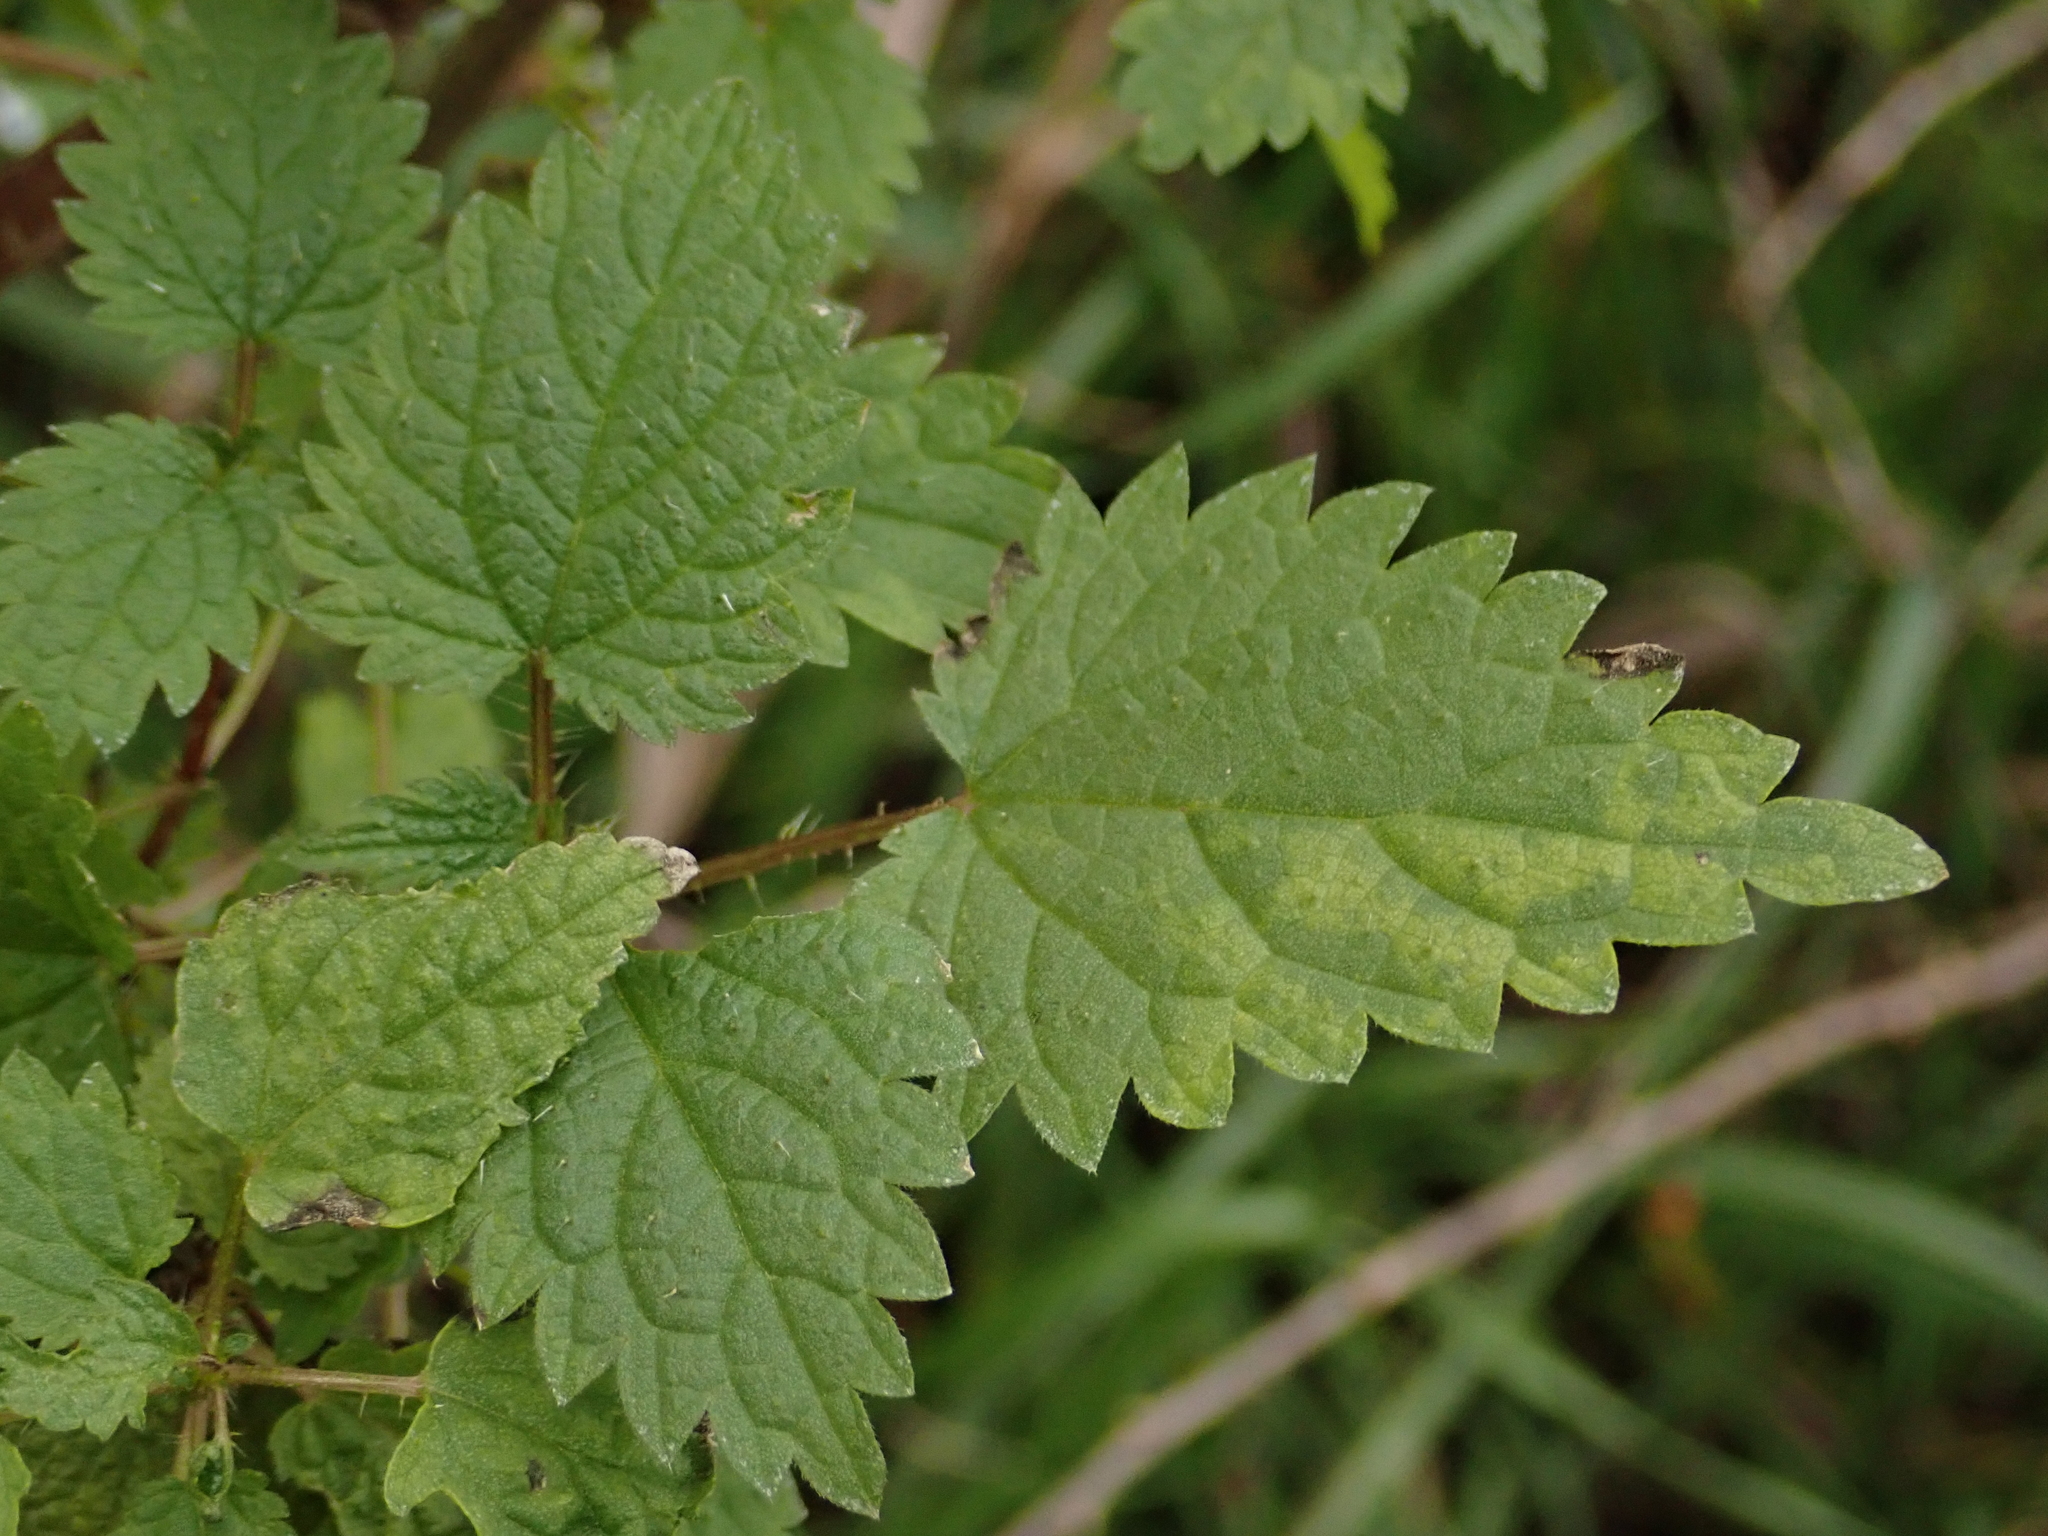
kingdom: Plantae
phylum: Tracheophyta
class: Magnoliopsida
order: Rosales
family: Urticaceae
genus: Urtica
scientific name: Urtica dioica
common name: Common nettle
